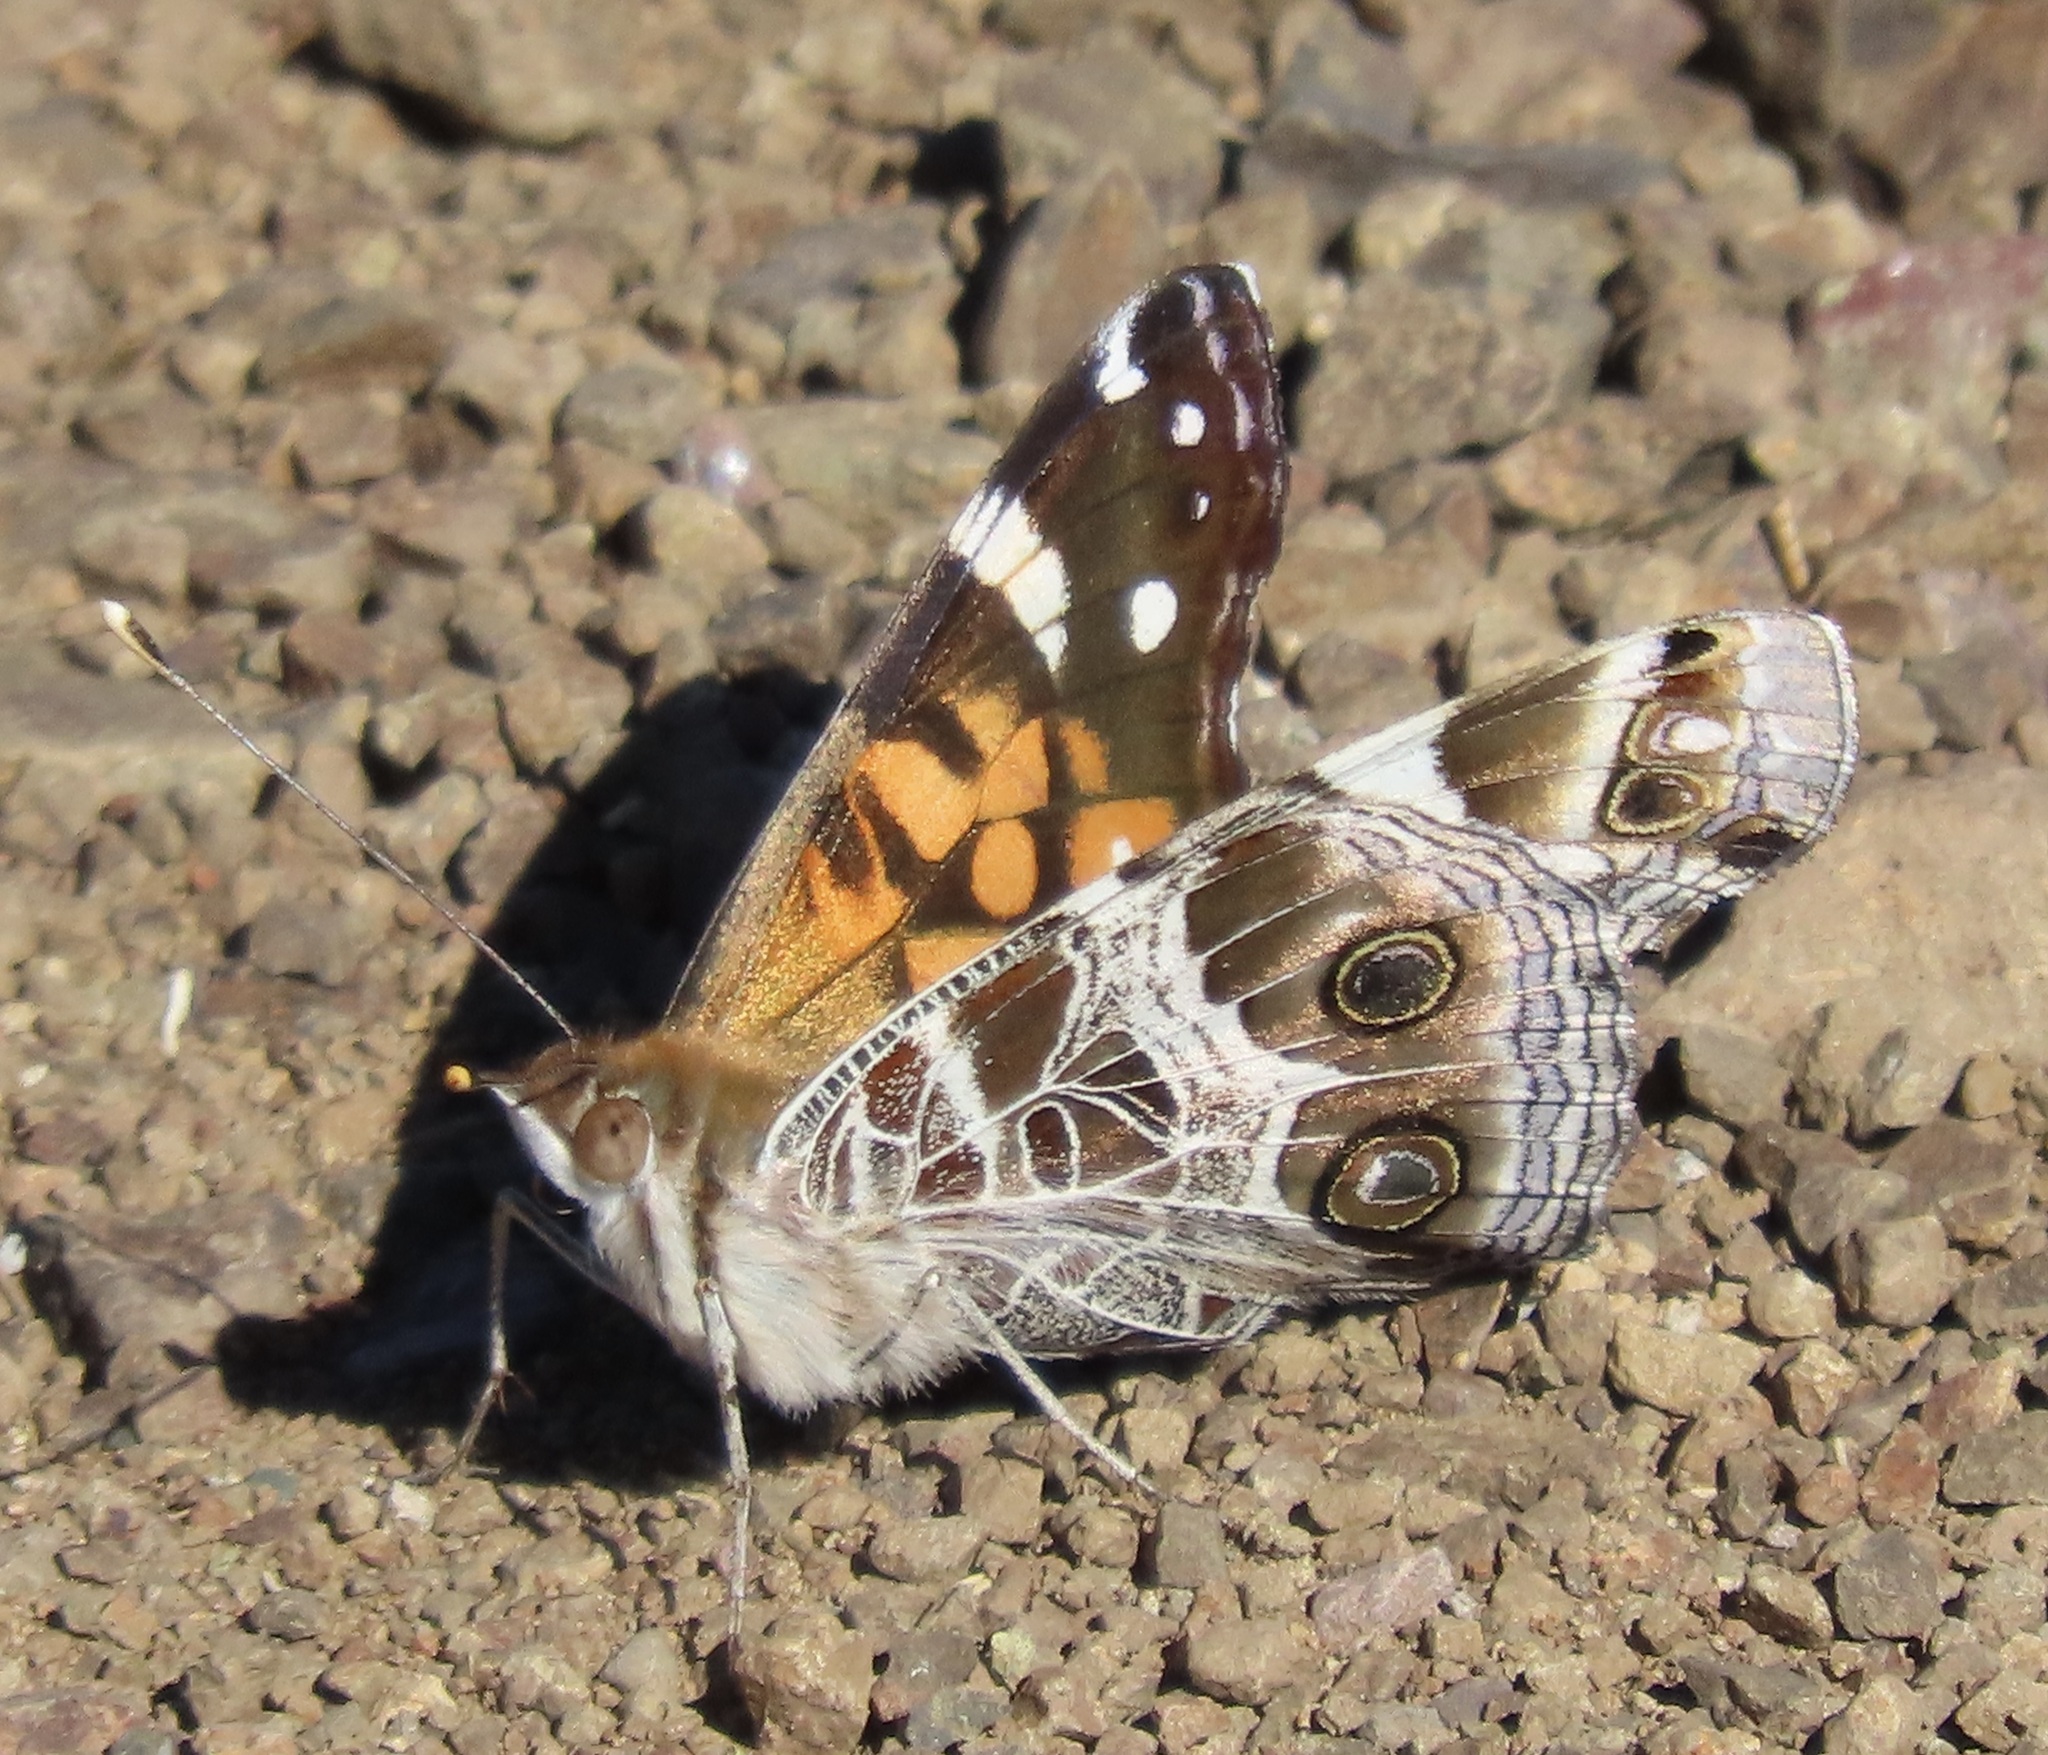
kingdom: Animalia
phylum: Arthropoda
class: Insecta
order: Lepidoptera
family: Nymphalidae
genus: Vanessa
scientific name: Vanessa virginiensis
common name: American lady
